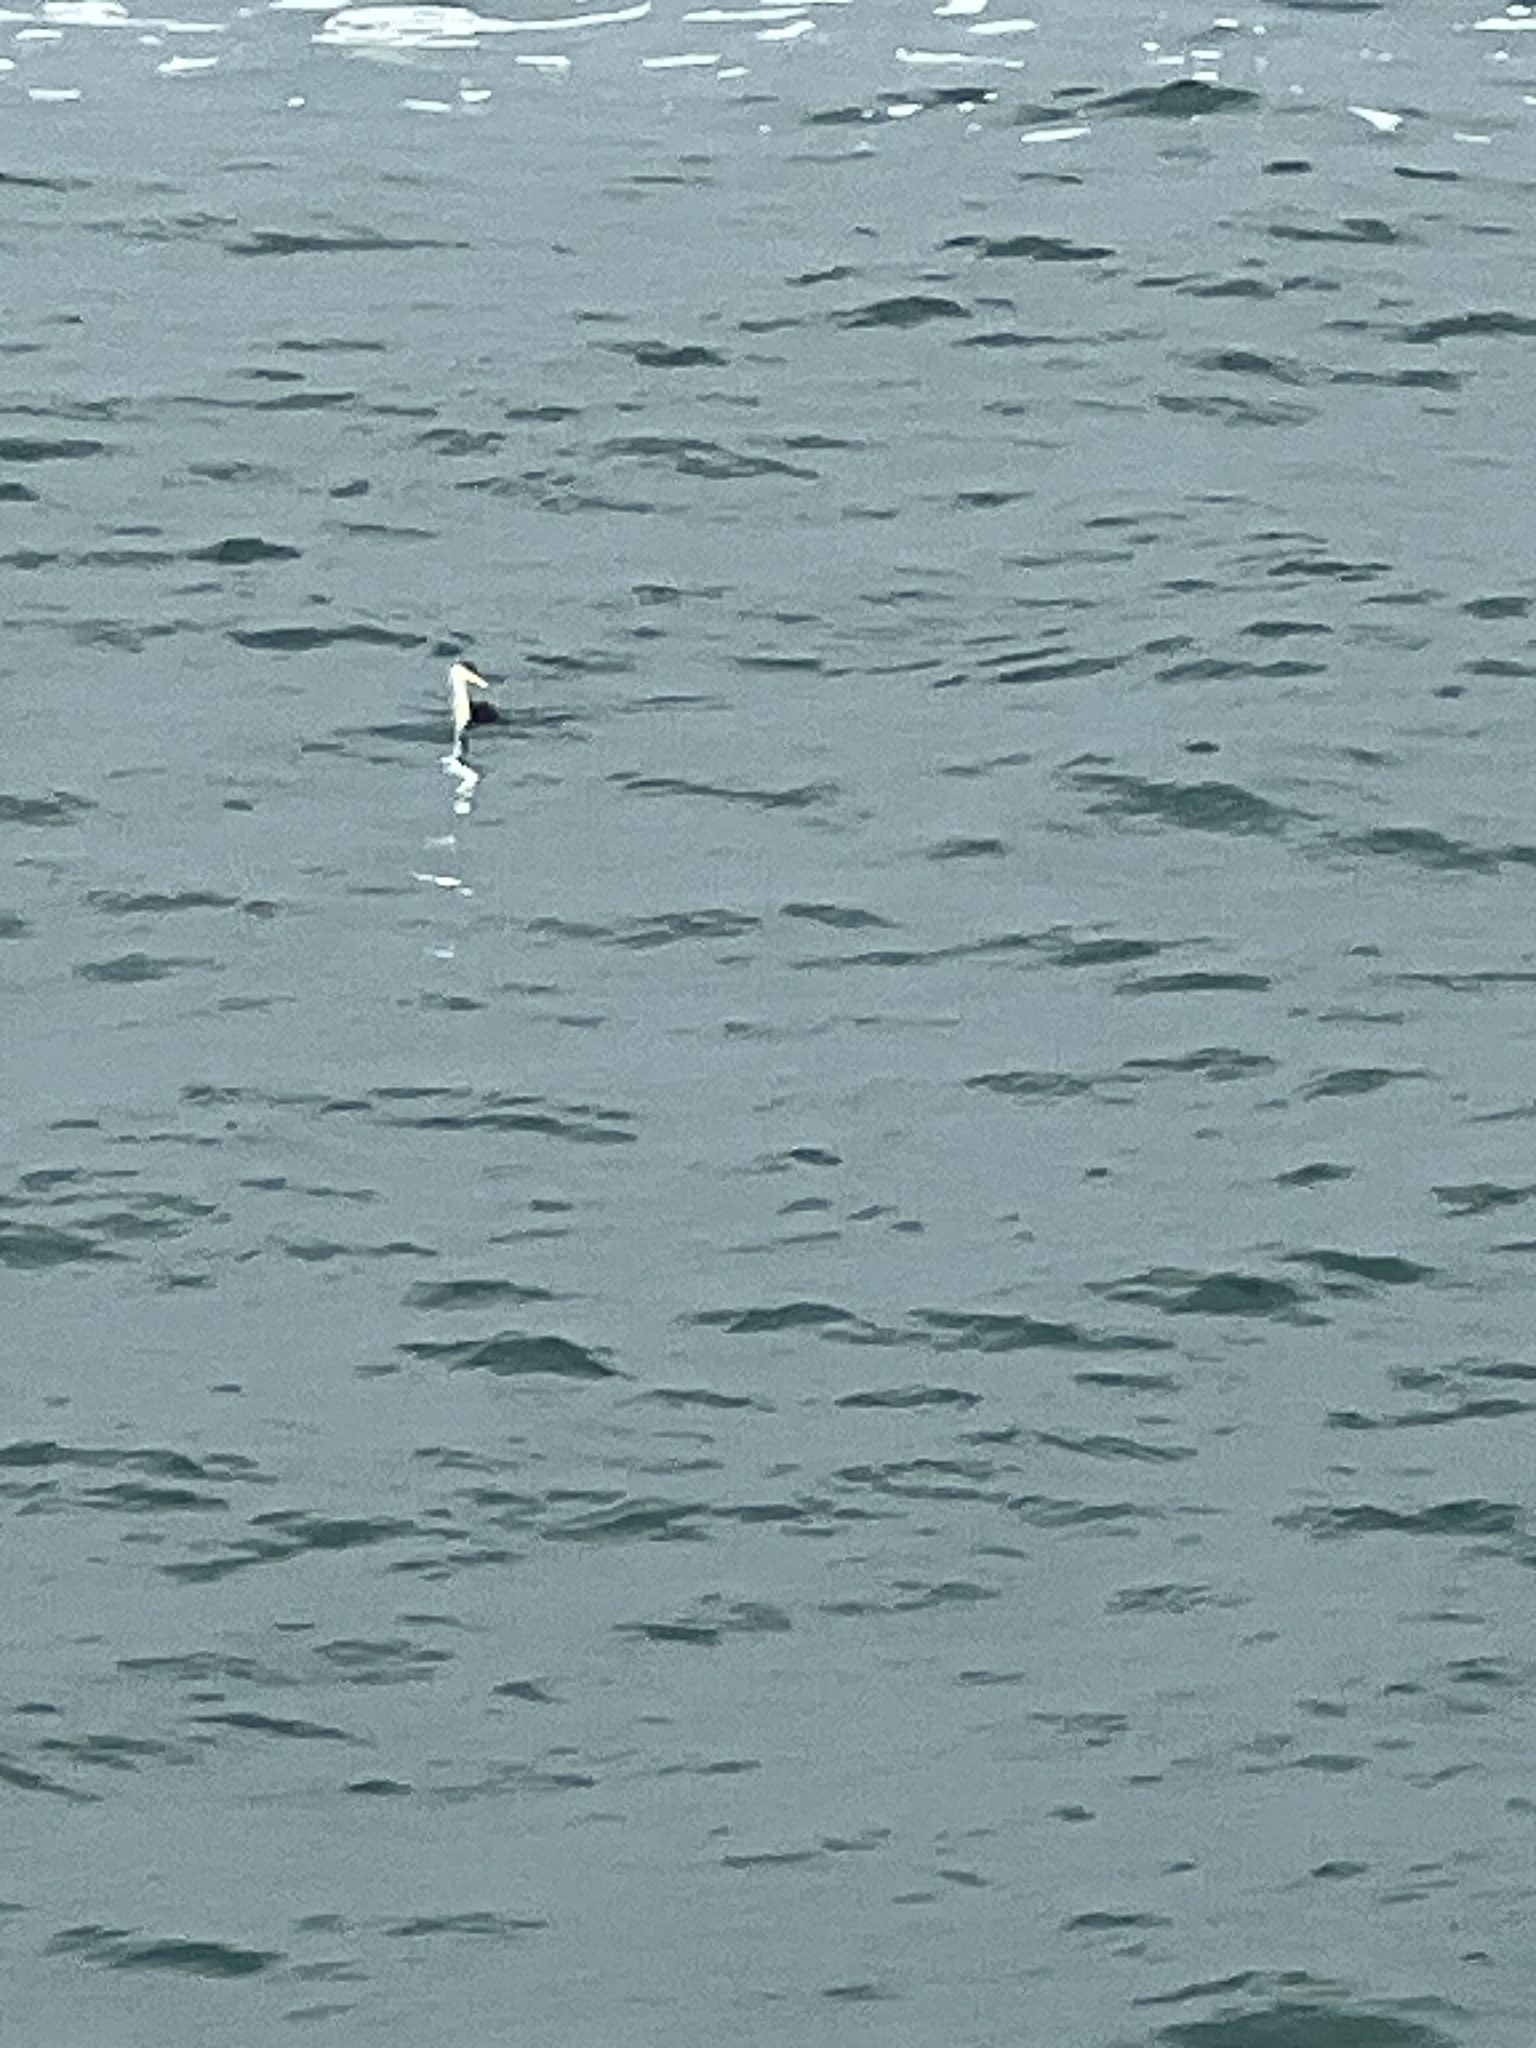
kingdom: Animalia
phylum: Chordata
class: Aves
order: Podicipediformes
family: Podicipedidae
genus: Aechmophorus
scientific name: Aechmophorus
